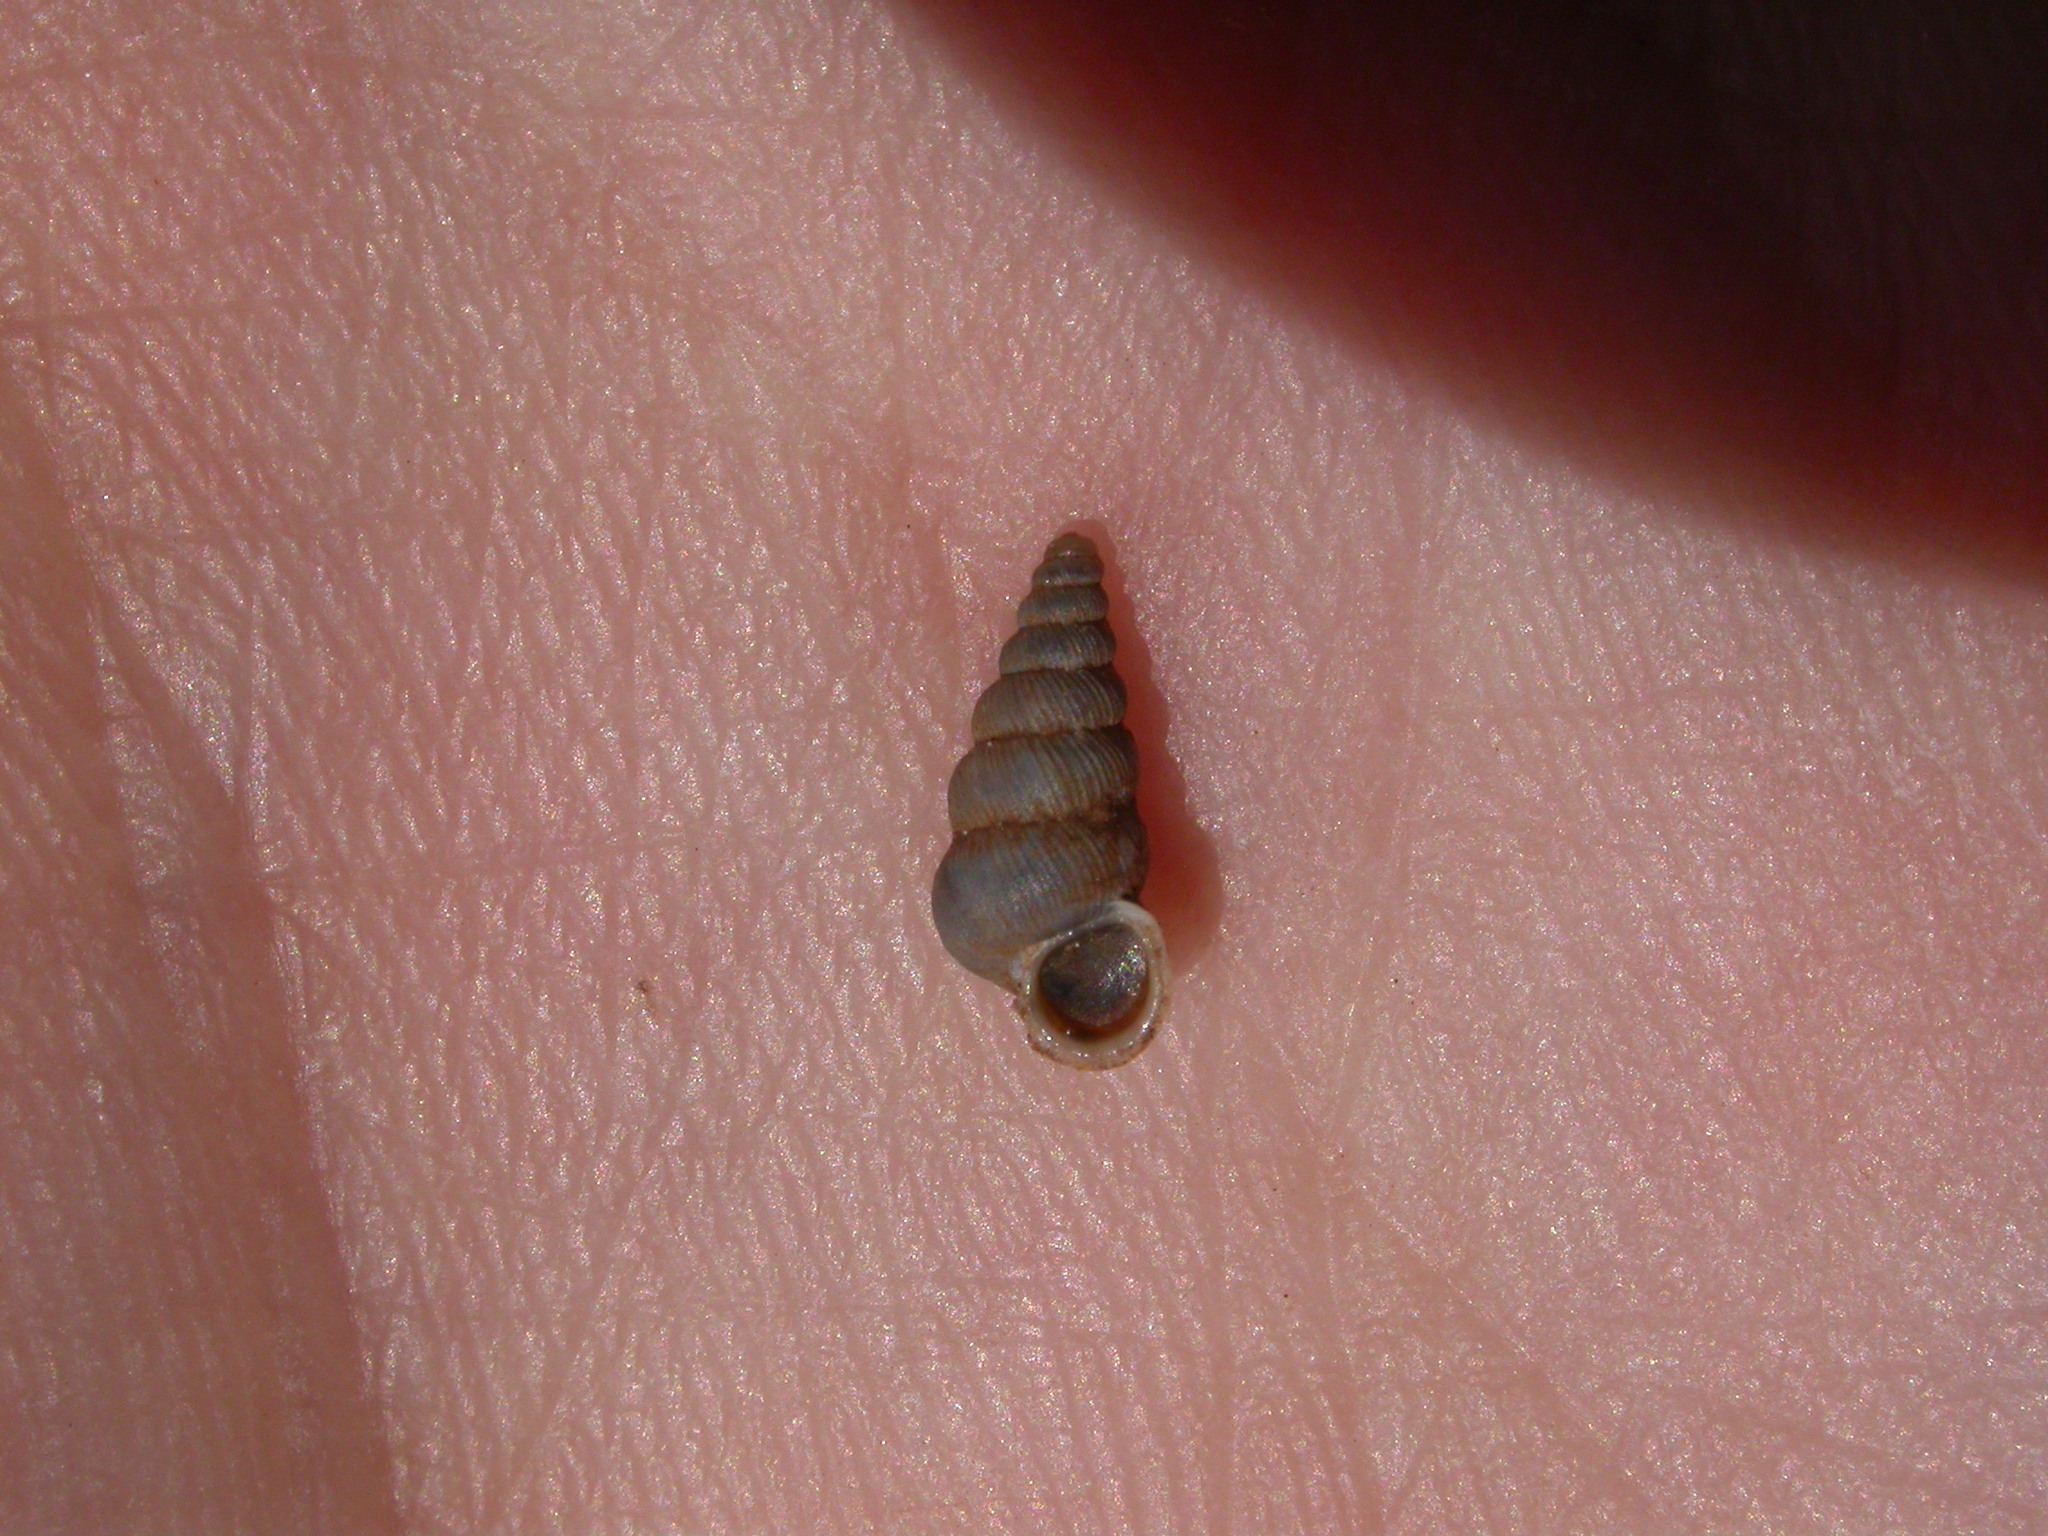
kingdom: Animalia
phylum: Mollusca
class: Gastropoda
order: Architaenioglossa
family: Cochlostomatidae
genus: Cochlostoma
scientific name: Cochlostoma patulum
